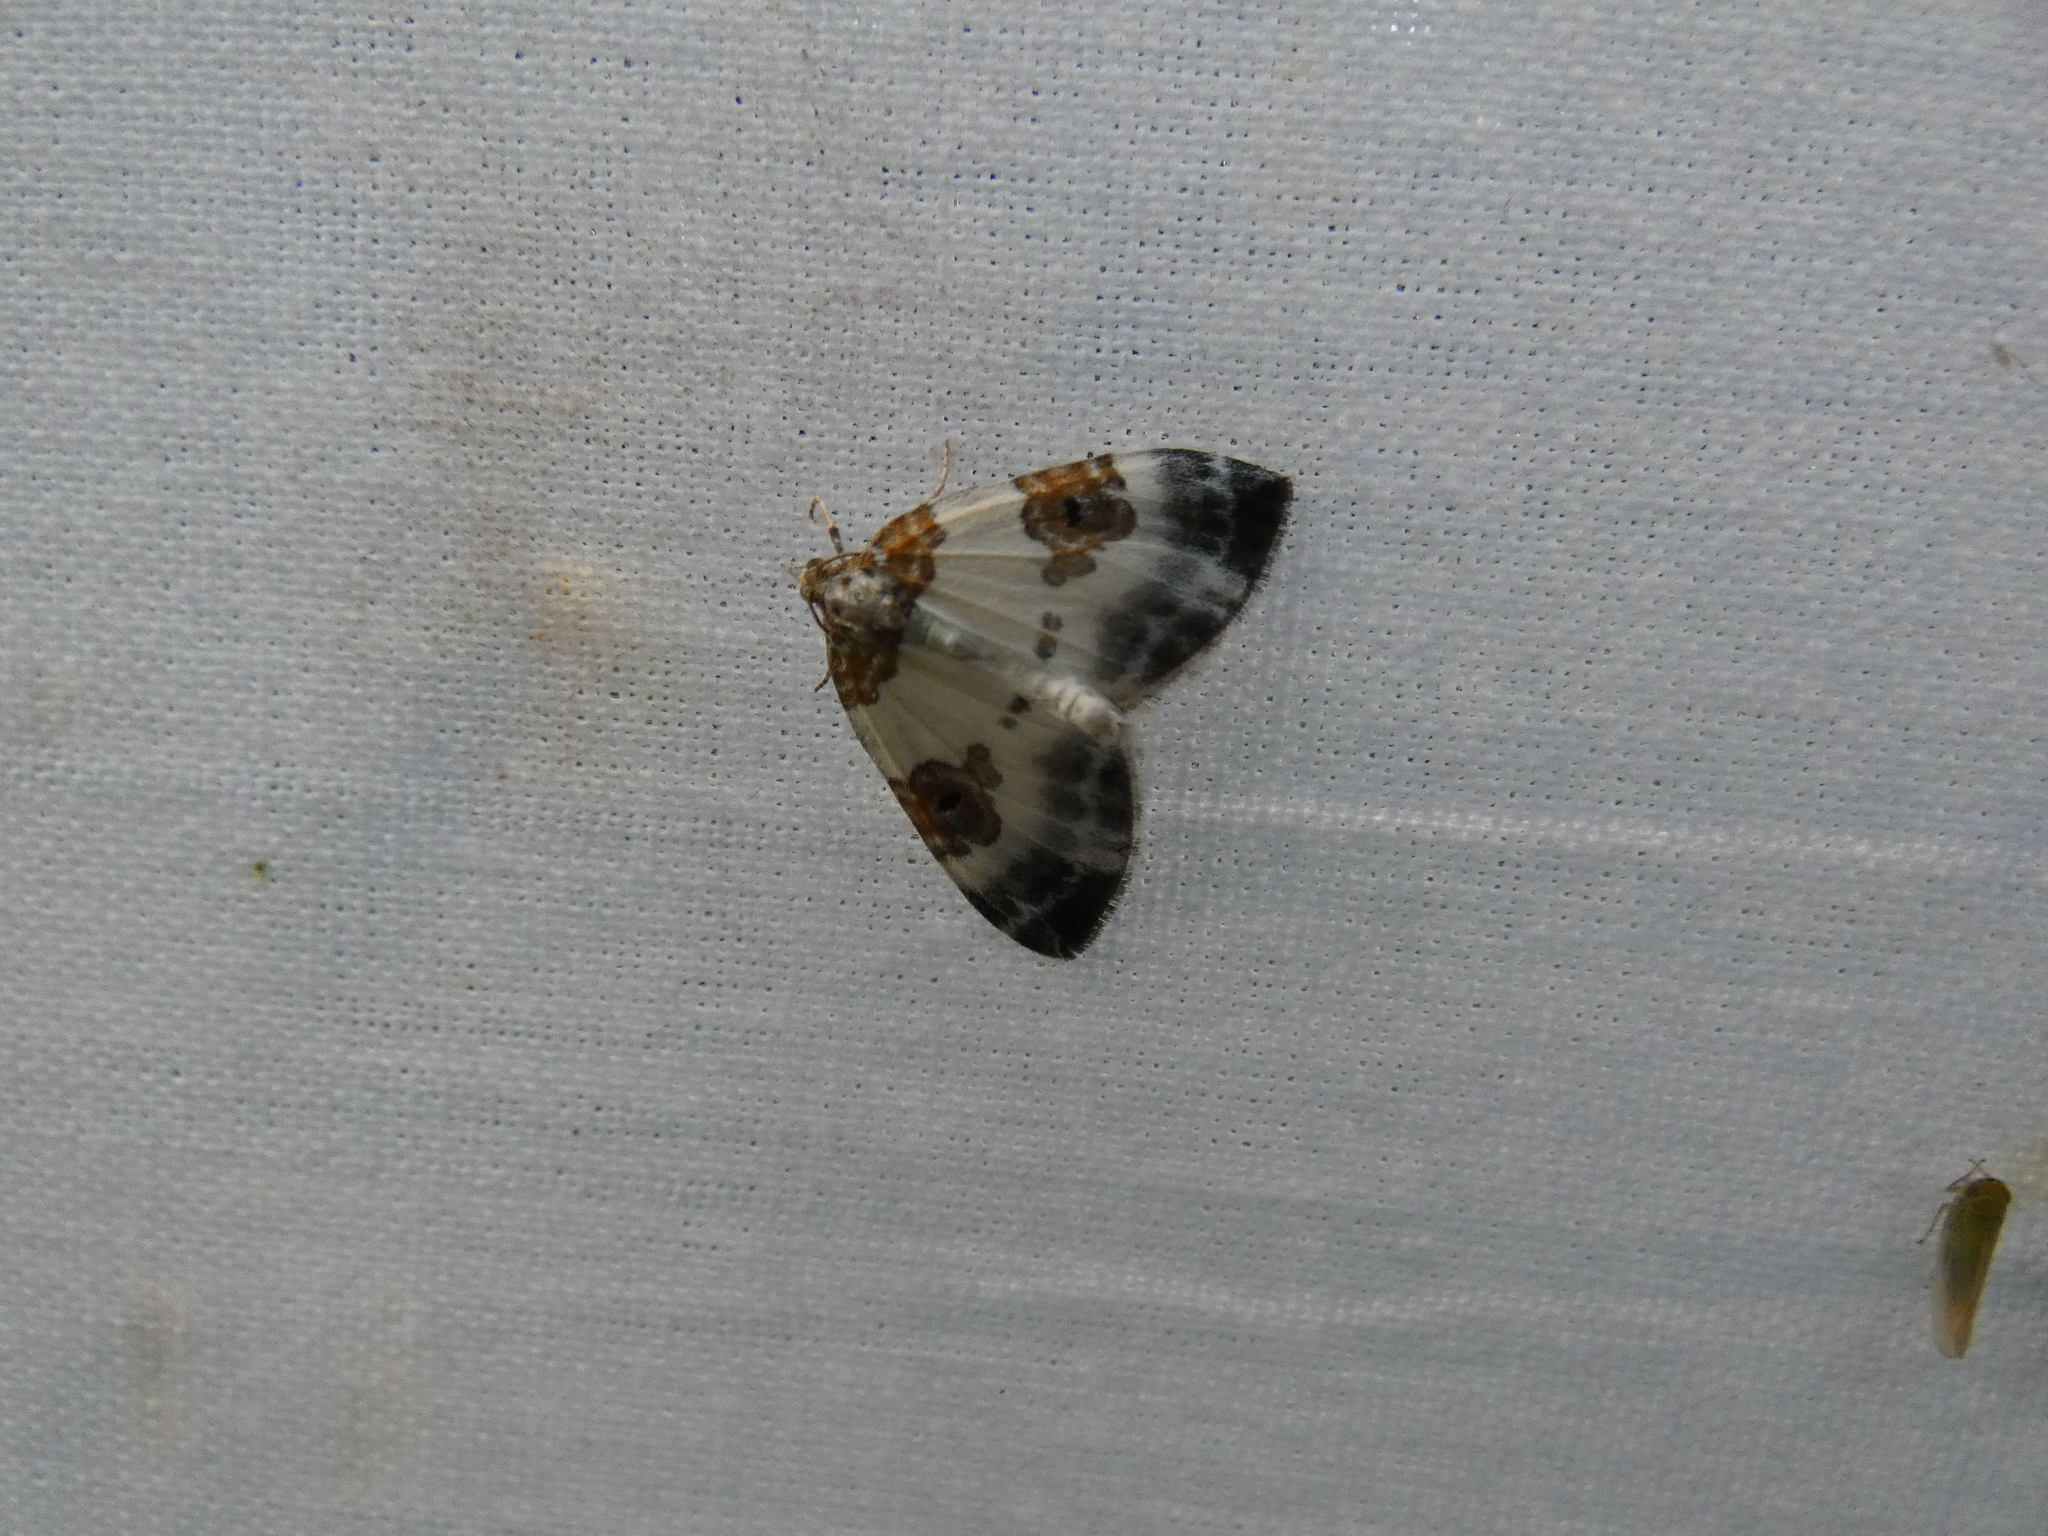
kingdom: Animalia
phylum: Arthropoda
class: Insecta
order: Lepidoptera
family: Geometridae
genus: Plemyria
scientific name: Plemyria rubiginata
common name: Blue-bordered carpet
